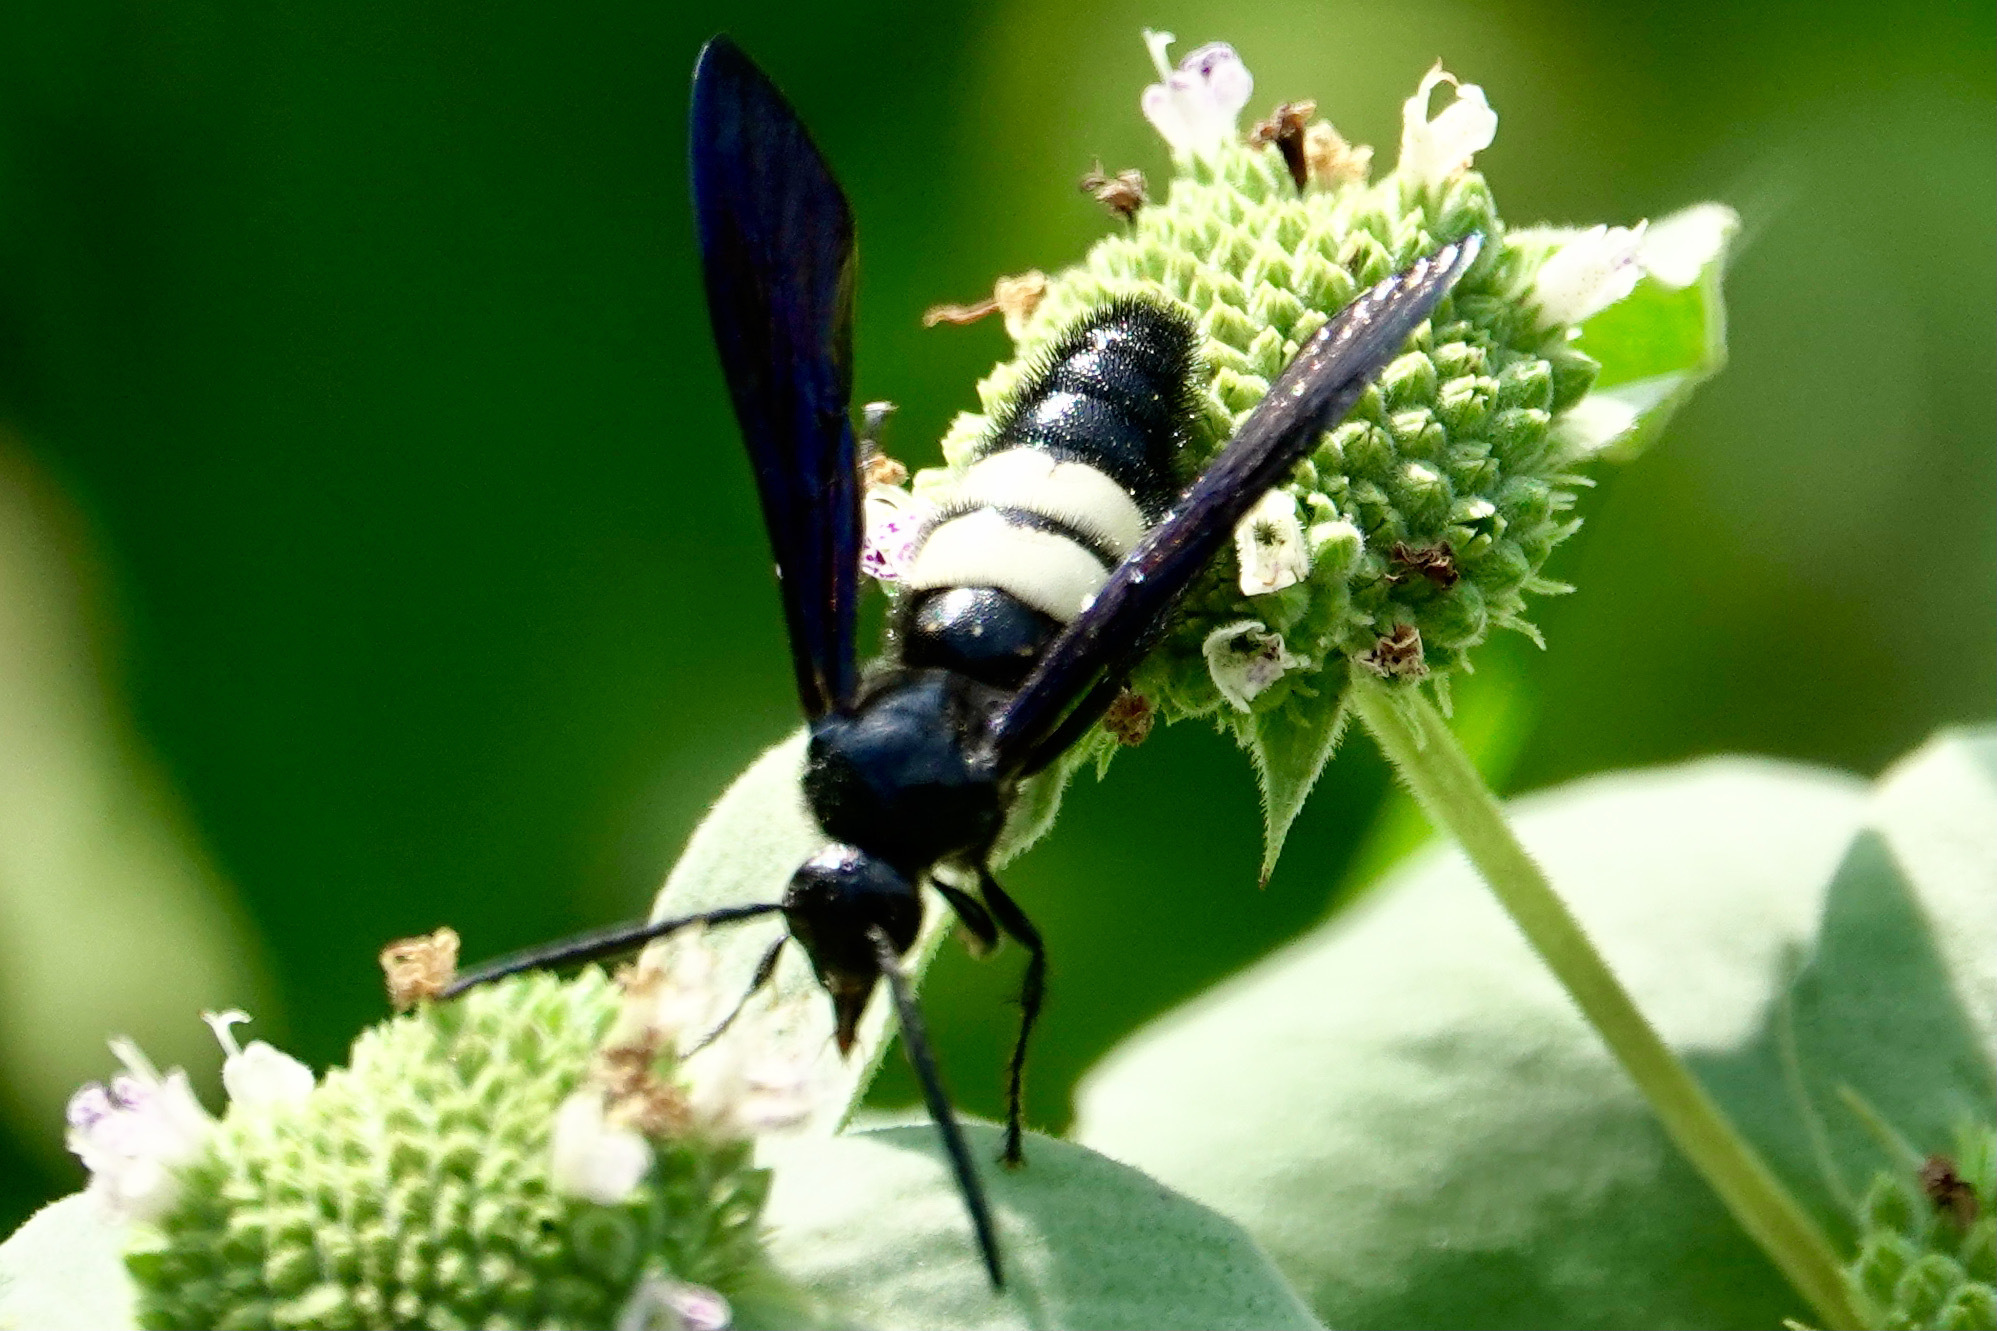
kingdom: Animalia
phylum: Arthropoda
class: Insecta
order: Hymenoptera
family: Scoliidae
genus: Scolia
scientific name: Scolia bicincta
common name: Double-banded scoliid wasp
